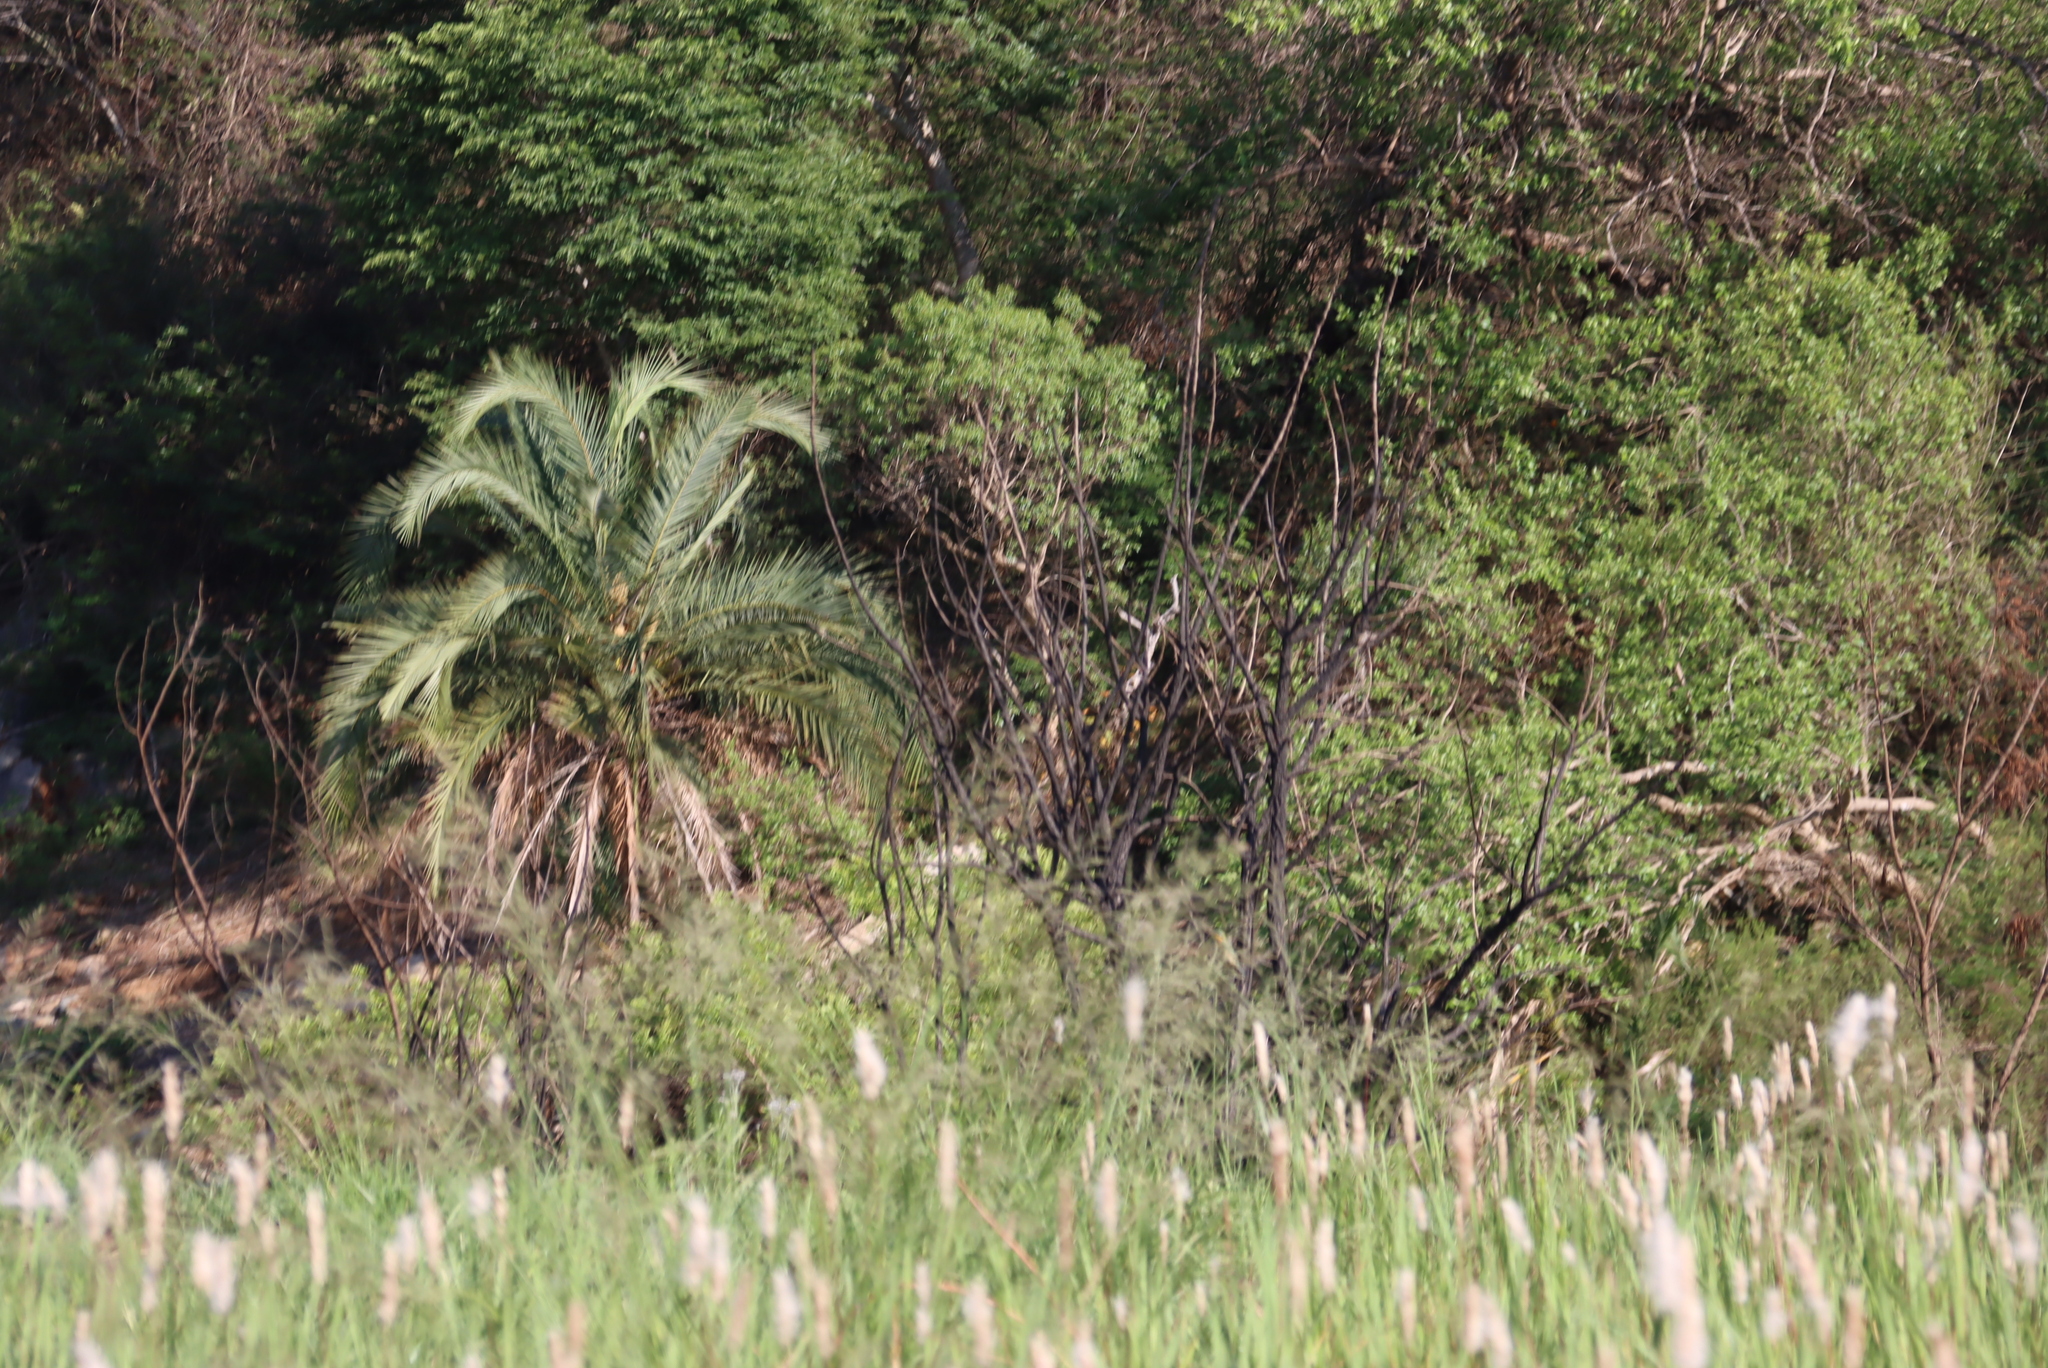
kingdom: Plantae
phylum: Tracheophyta
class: Liliopsida
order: Arecales
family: Arecaceae
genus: Phoenix
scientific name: Phoenix reclinata
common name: Senegal date palm
